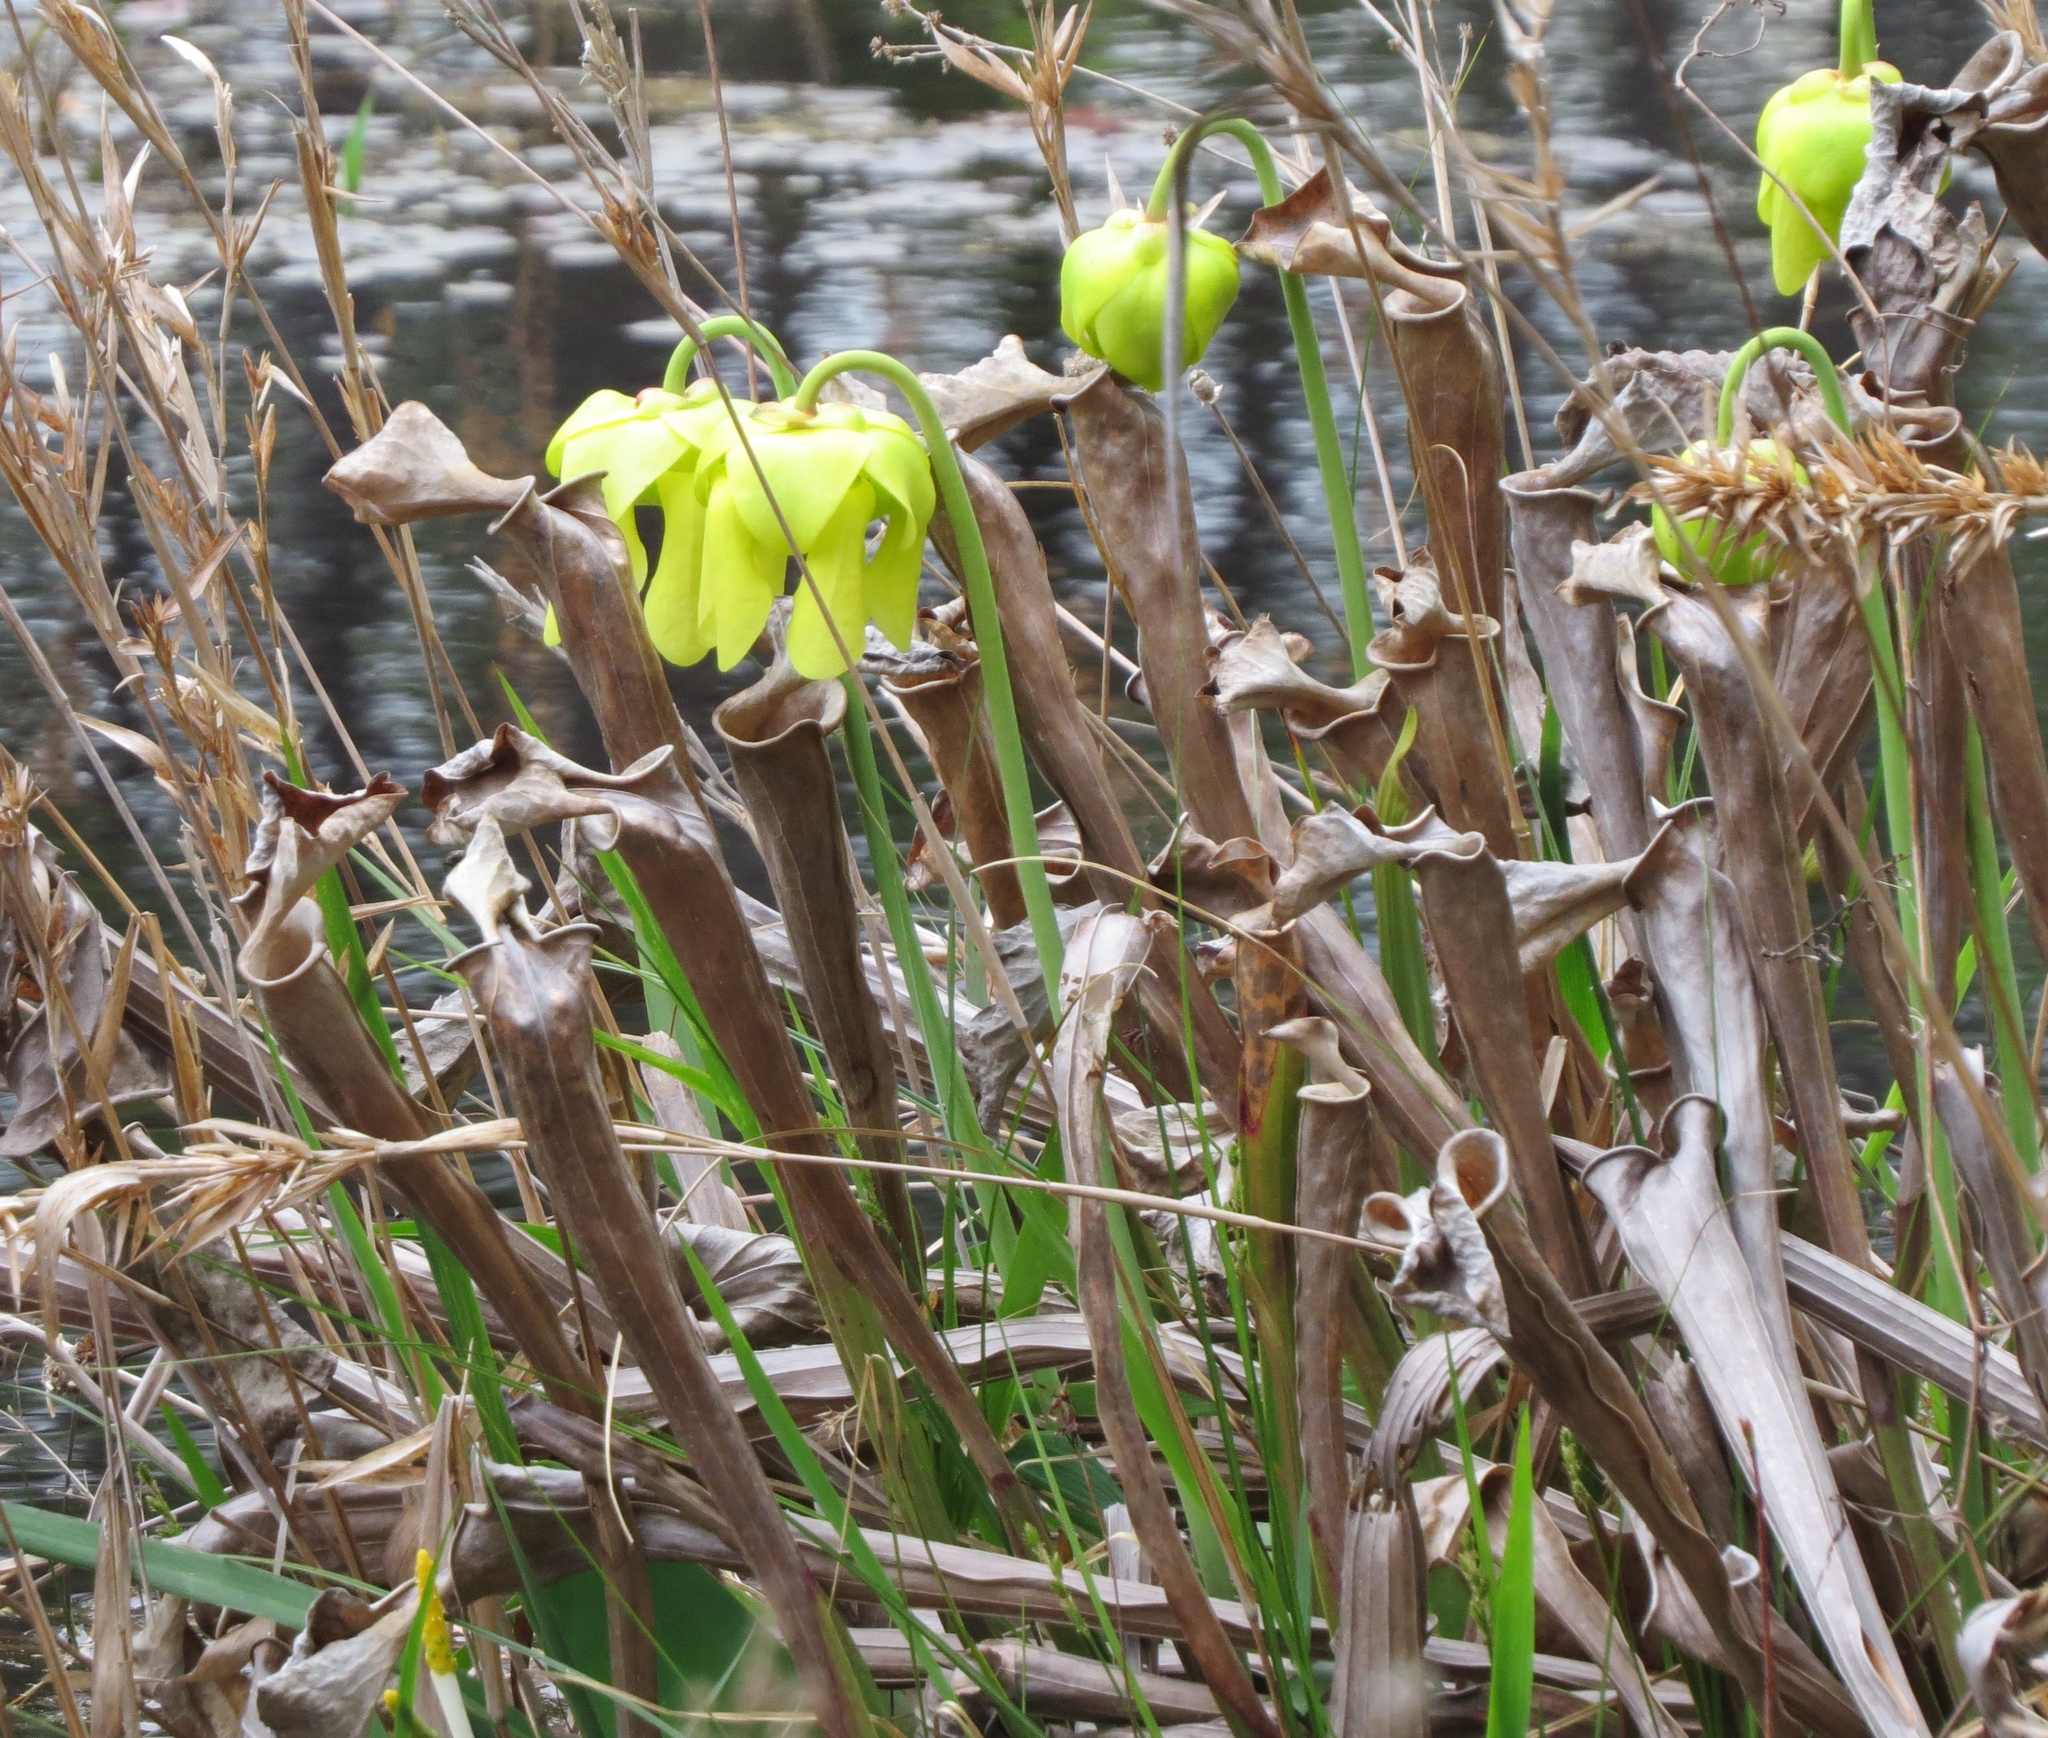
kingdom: Plantae
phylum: Tracheophyta
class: Magnoliopsida
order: Ericales
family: Sarraceniaceae
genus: Sarracenia
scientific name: Sarracenia flava
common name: Trumpets
